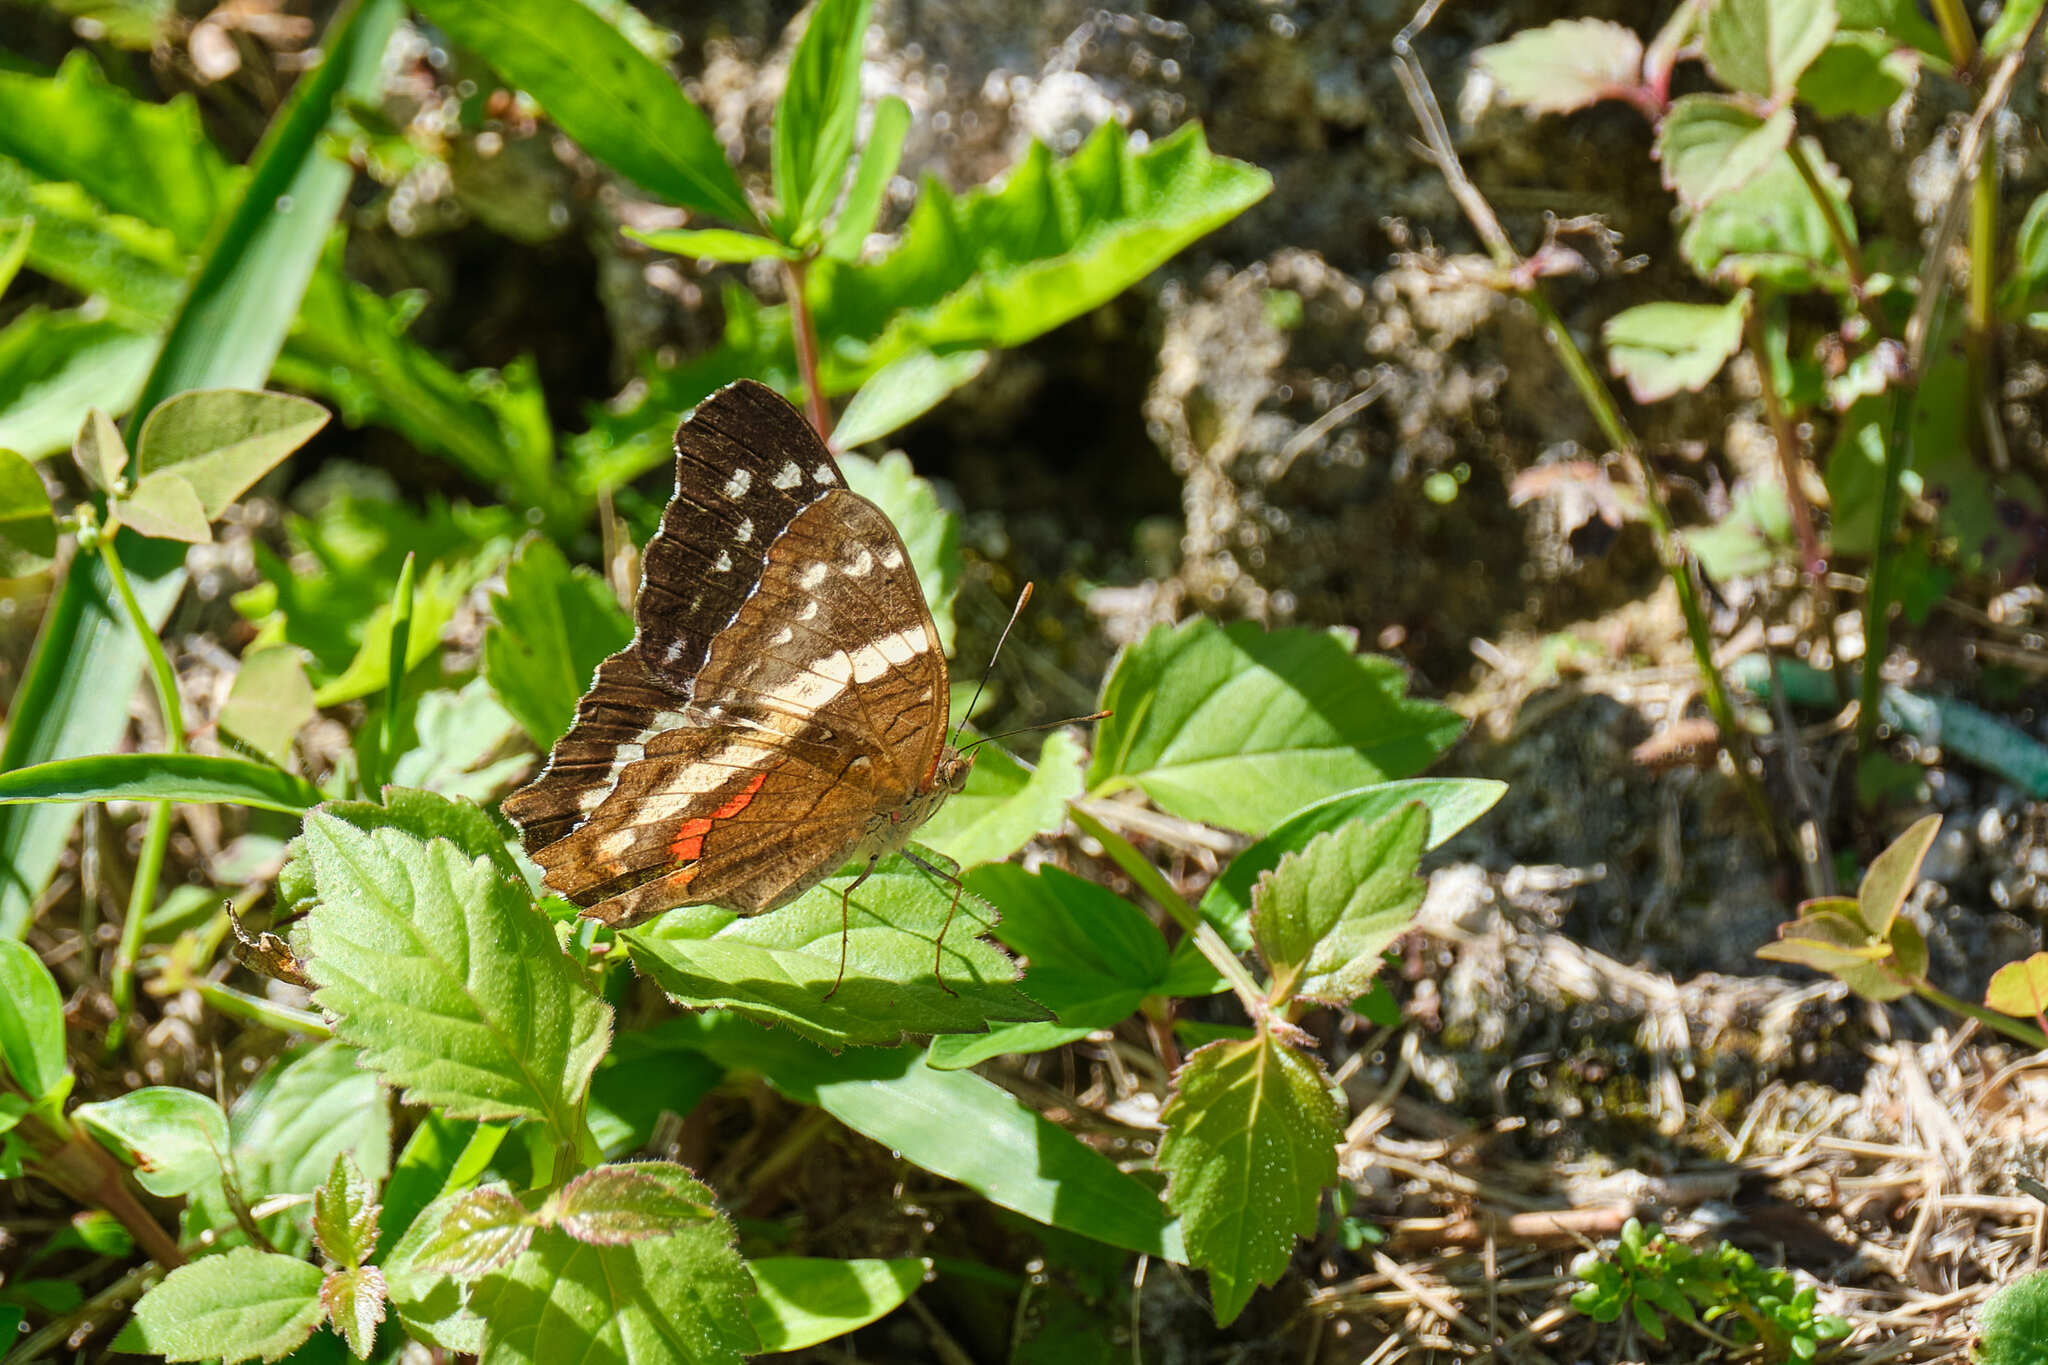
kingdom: Animalia
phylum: Arthropoda
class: Insecta
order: Lepidoptera
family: Nymphalidae
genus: Anartia
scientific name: Anartia fatima
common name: Banded peacock
